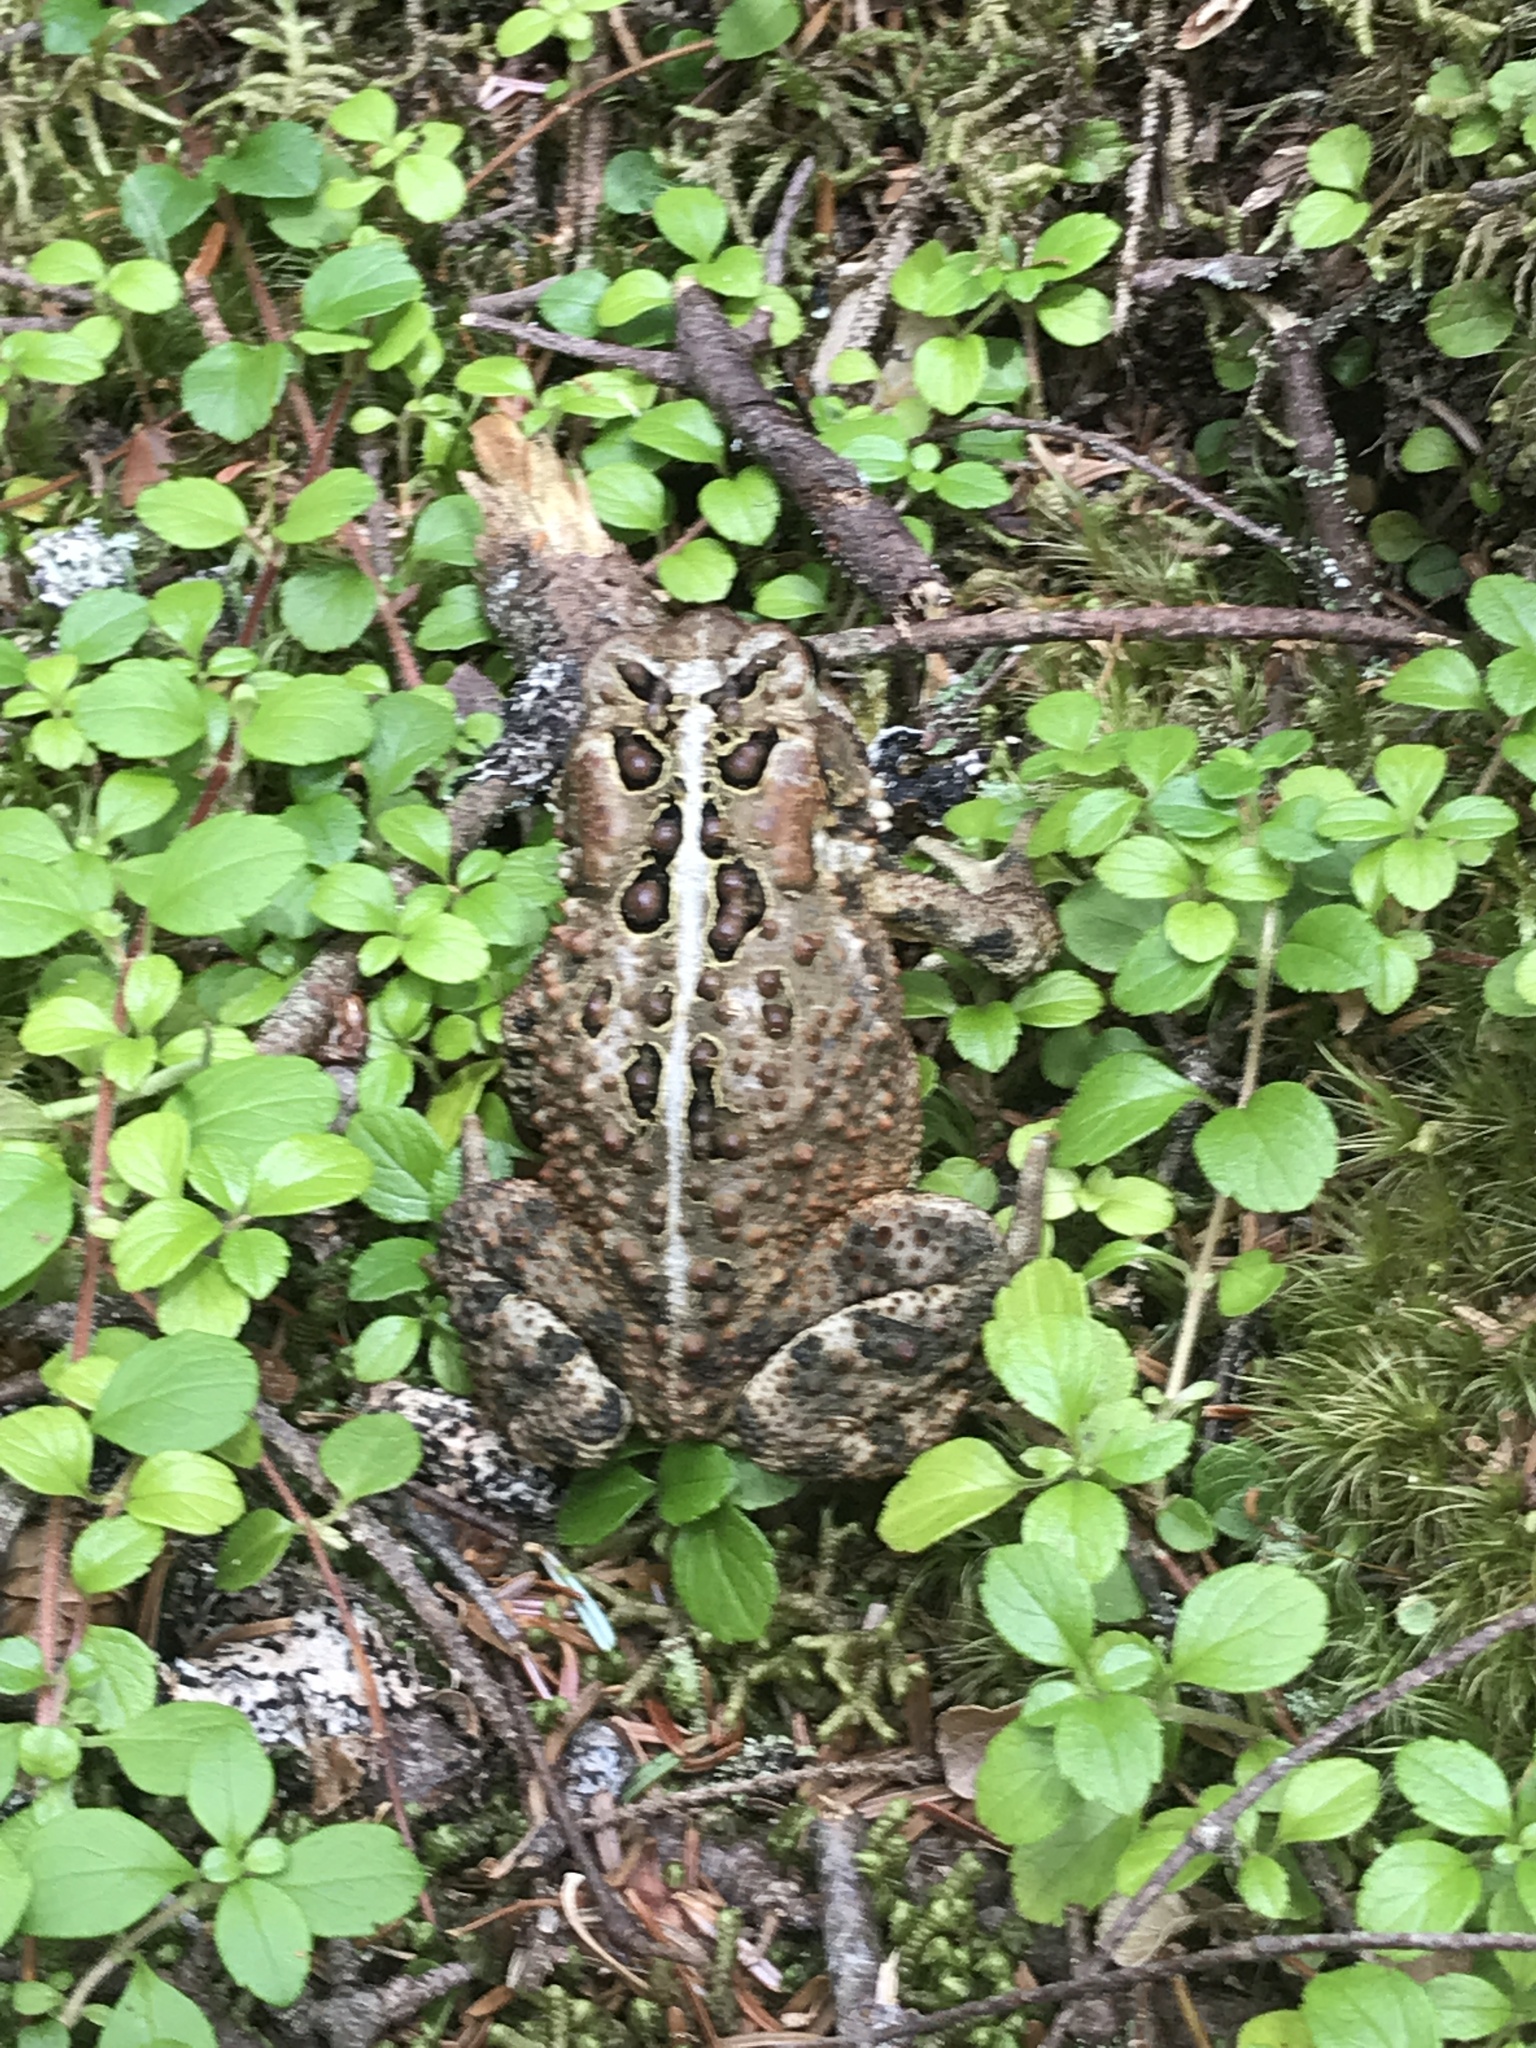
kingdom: Animalia
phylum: Chordata
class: Amphibia
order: Anura
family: Bufonidae
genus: Anaxyrus
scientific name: Anaxyrus americanus
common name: American toad
